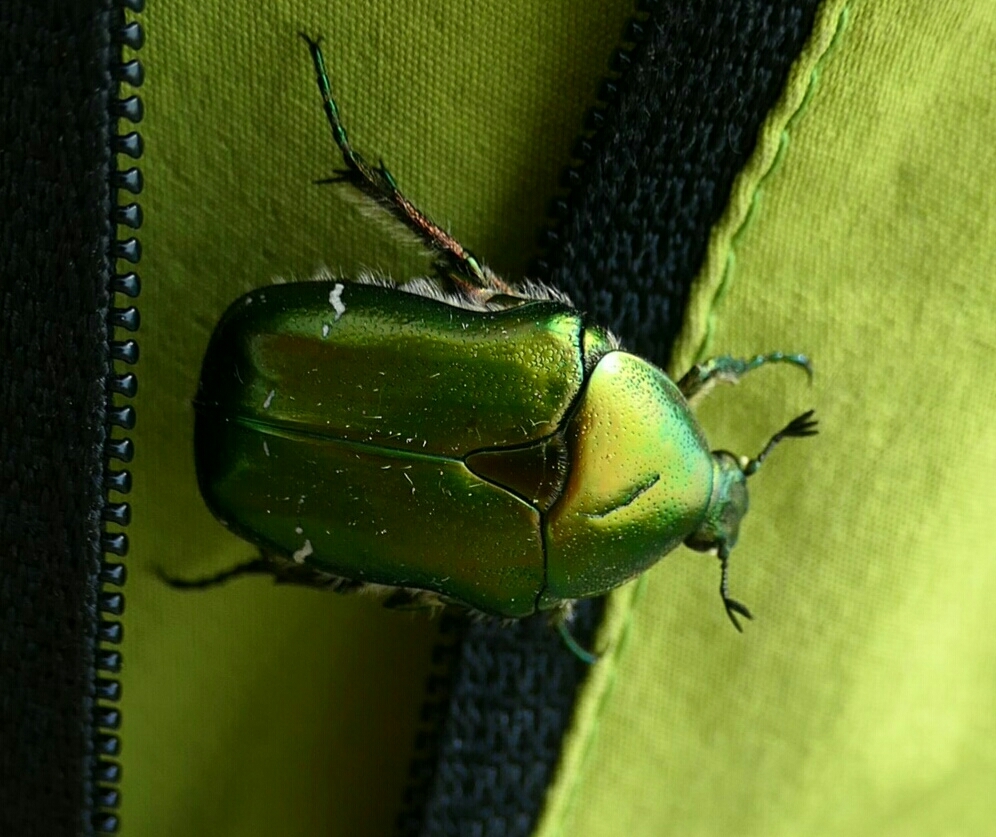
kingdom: Animalia
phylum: Arthropoda
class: Insecta
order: Coleoptera
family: Scarabaeidae
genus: Cetonia
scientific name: Cetonia aurata
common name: Rose chafer
